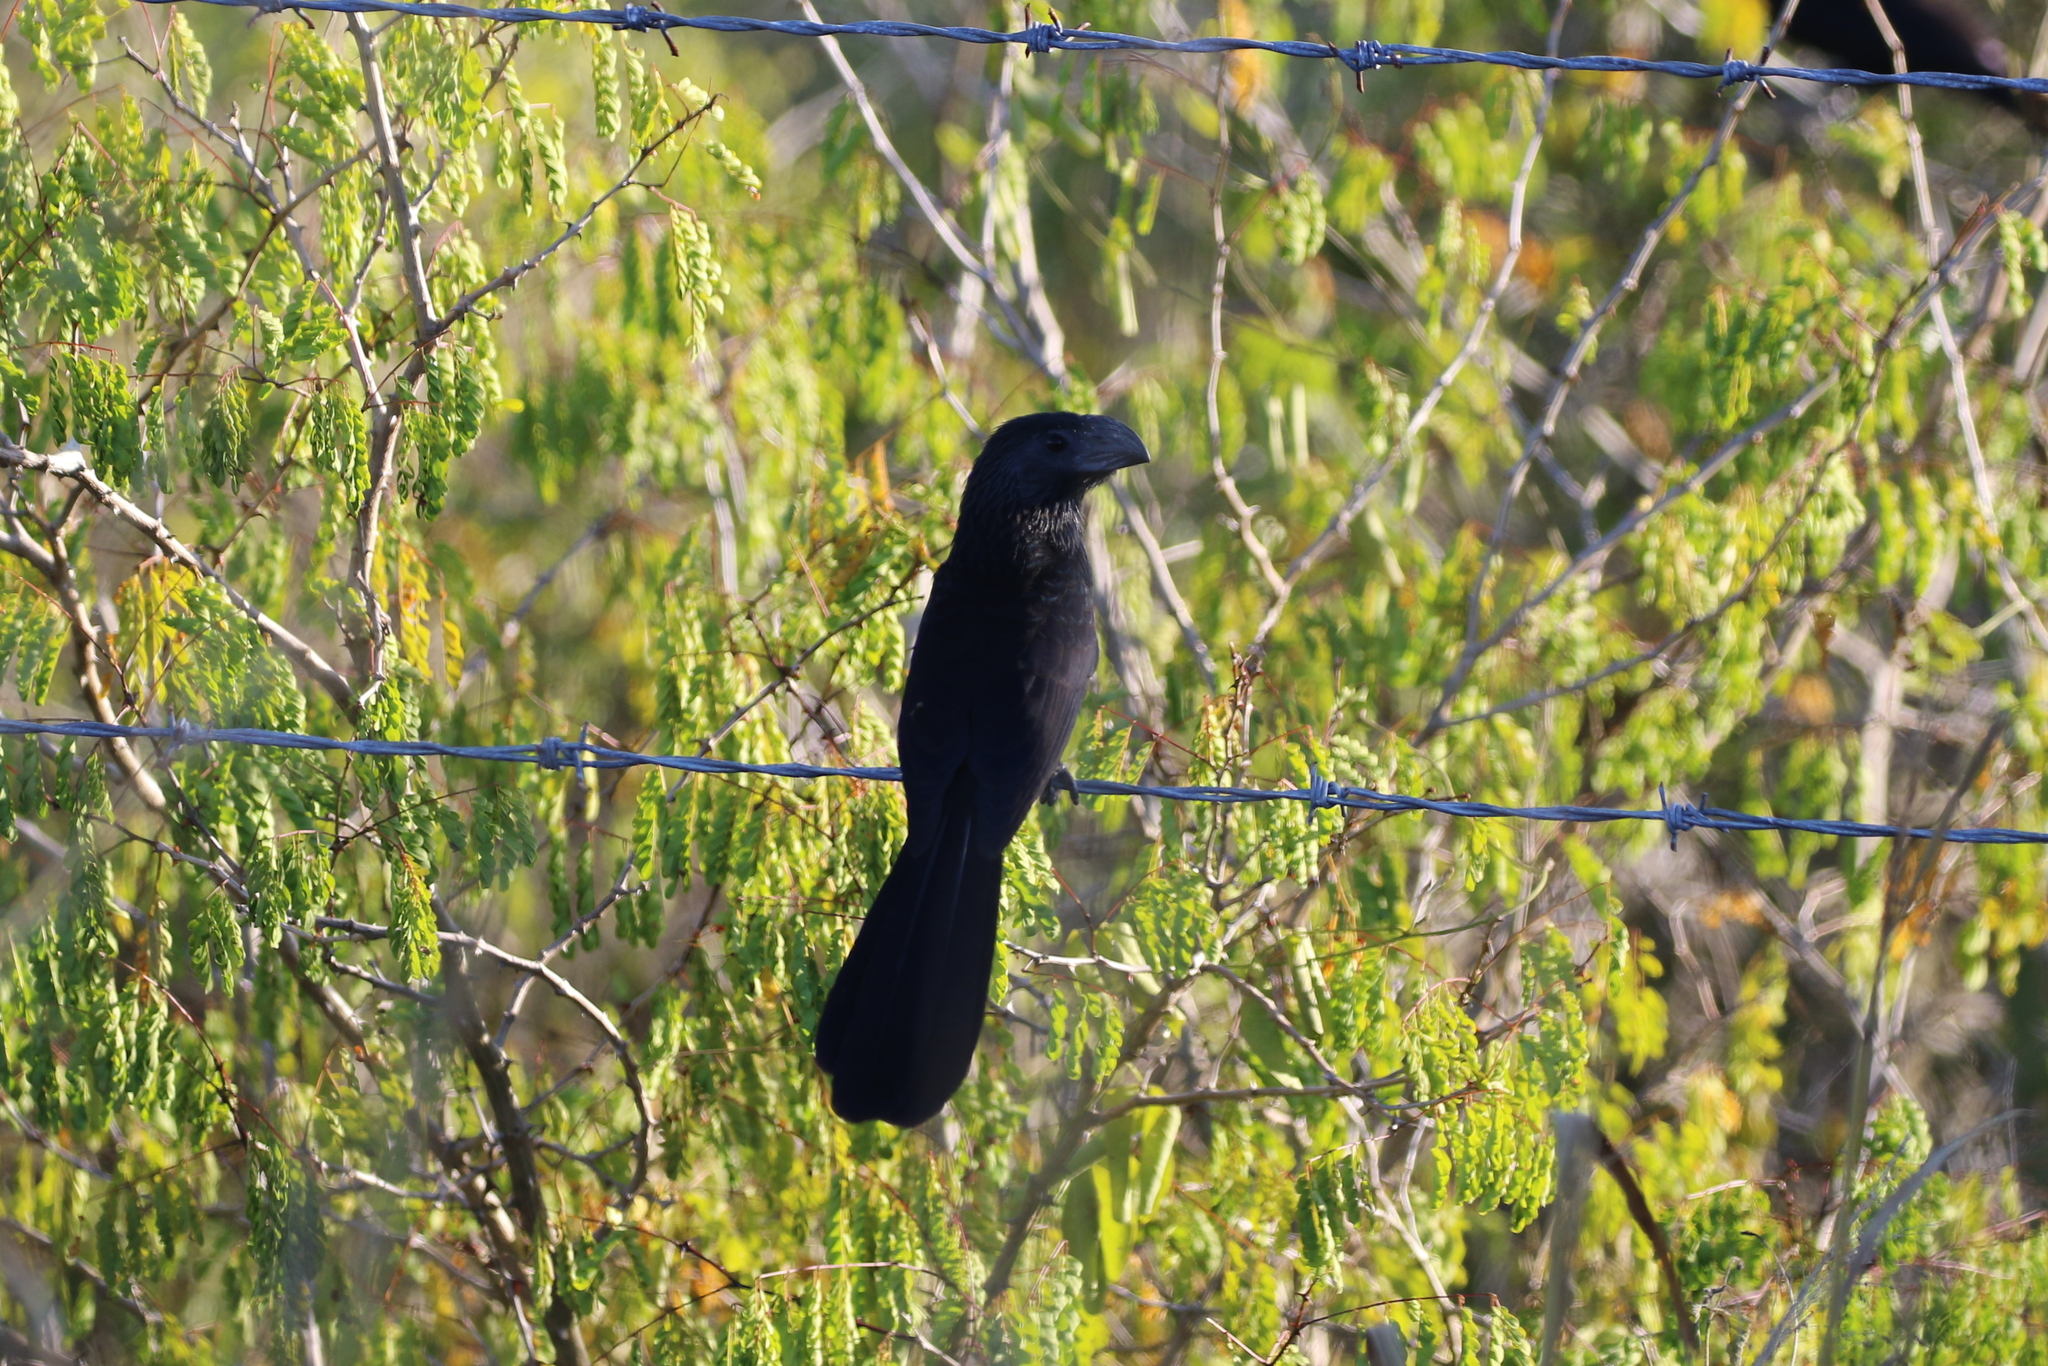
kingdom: Animalia
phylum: Chordata
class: Aves
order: Cuculiformes
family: Cuculidae
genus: Crotophaga
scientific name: Crotophaga sulcirostris
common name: Groove-billed ani
